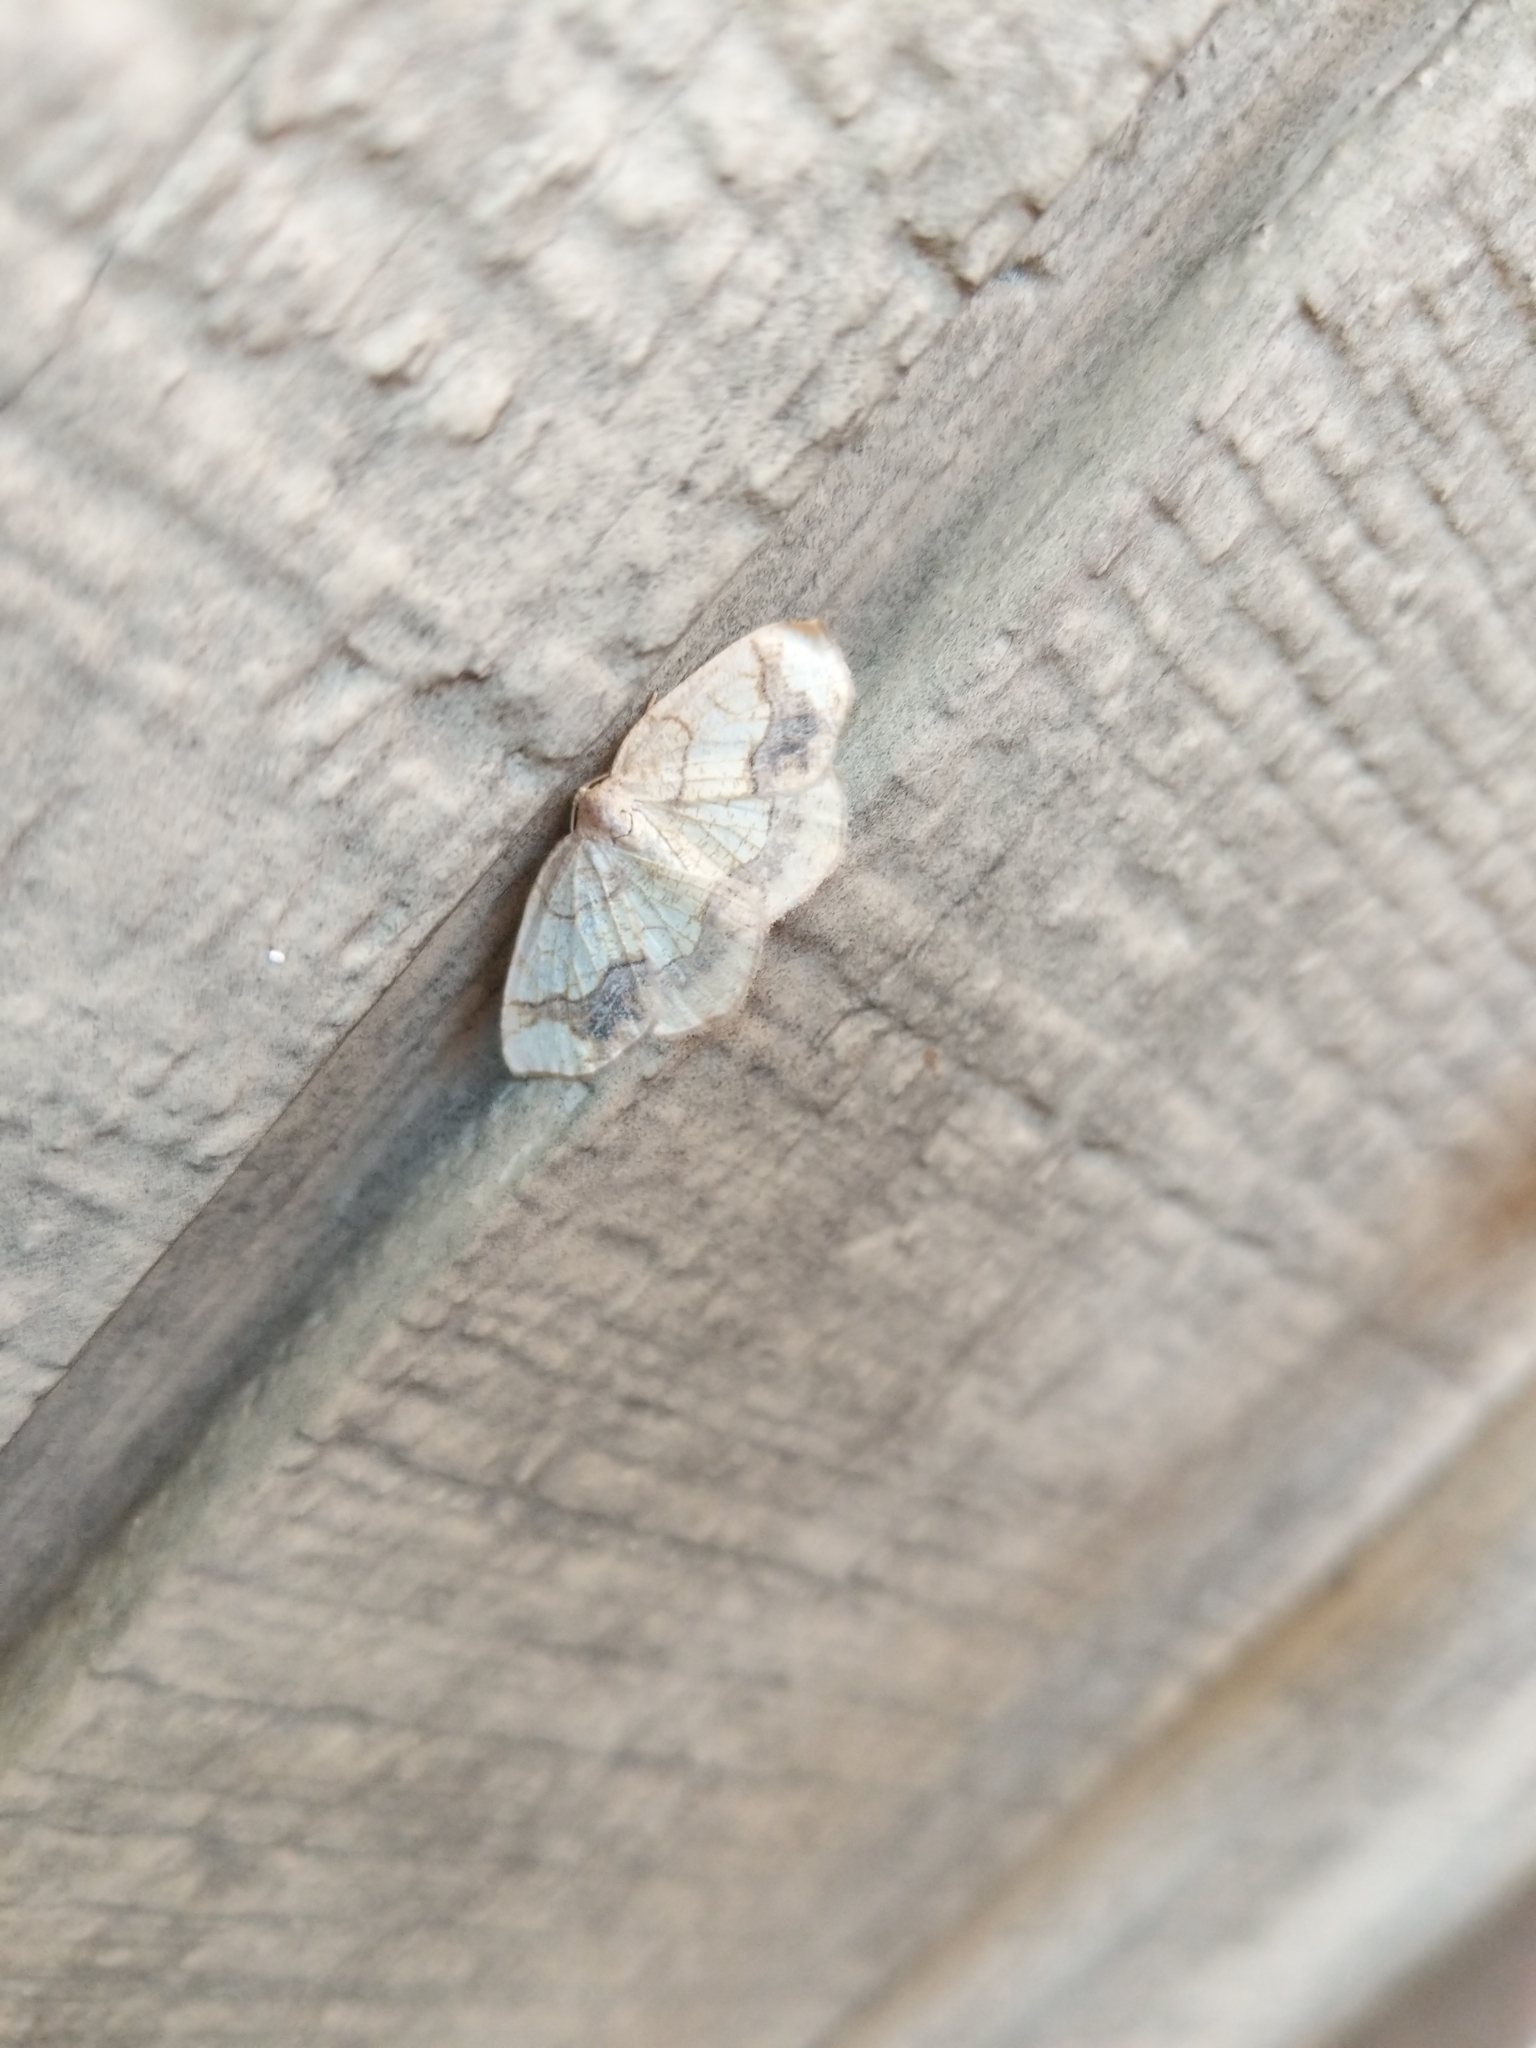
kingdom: Animalia
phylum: Arthropoda
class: Insecta
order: Lepidoptera
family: Geometridae
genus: Nematocampa
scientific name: Nematocampa resistaria
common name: Horned spanworm moth
